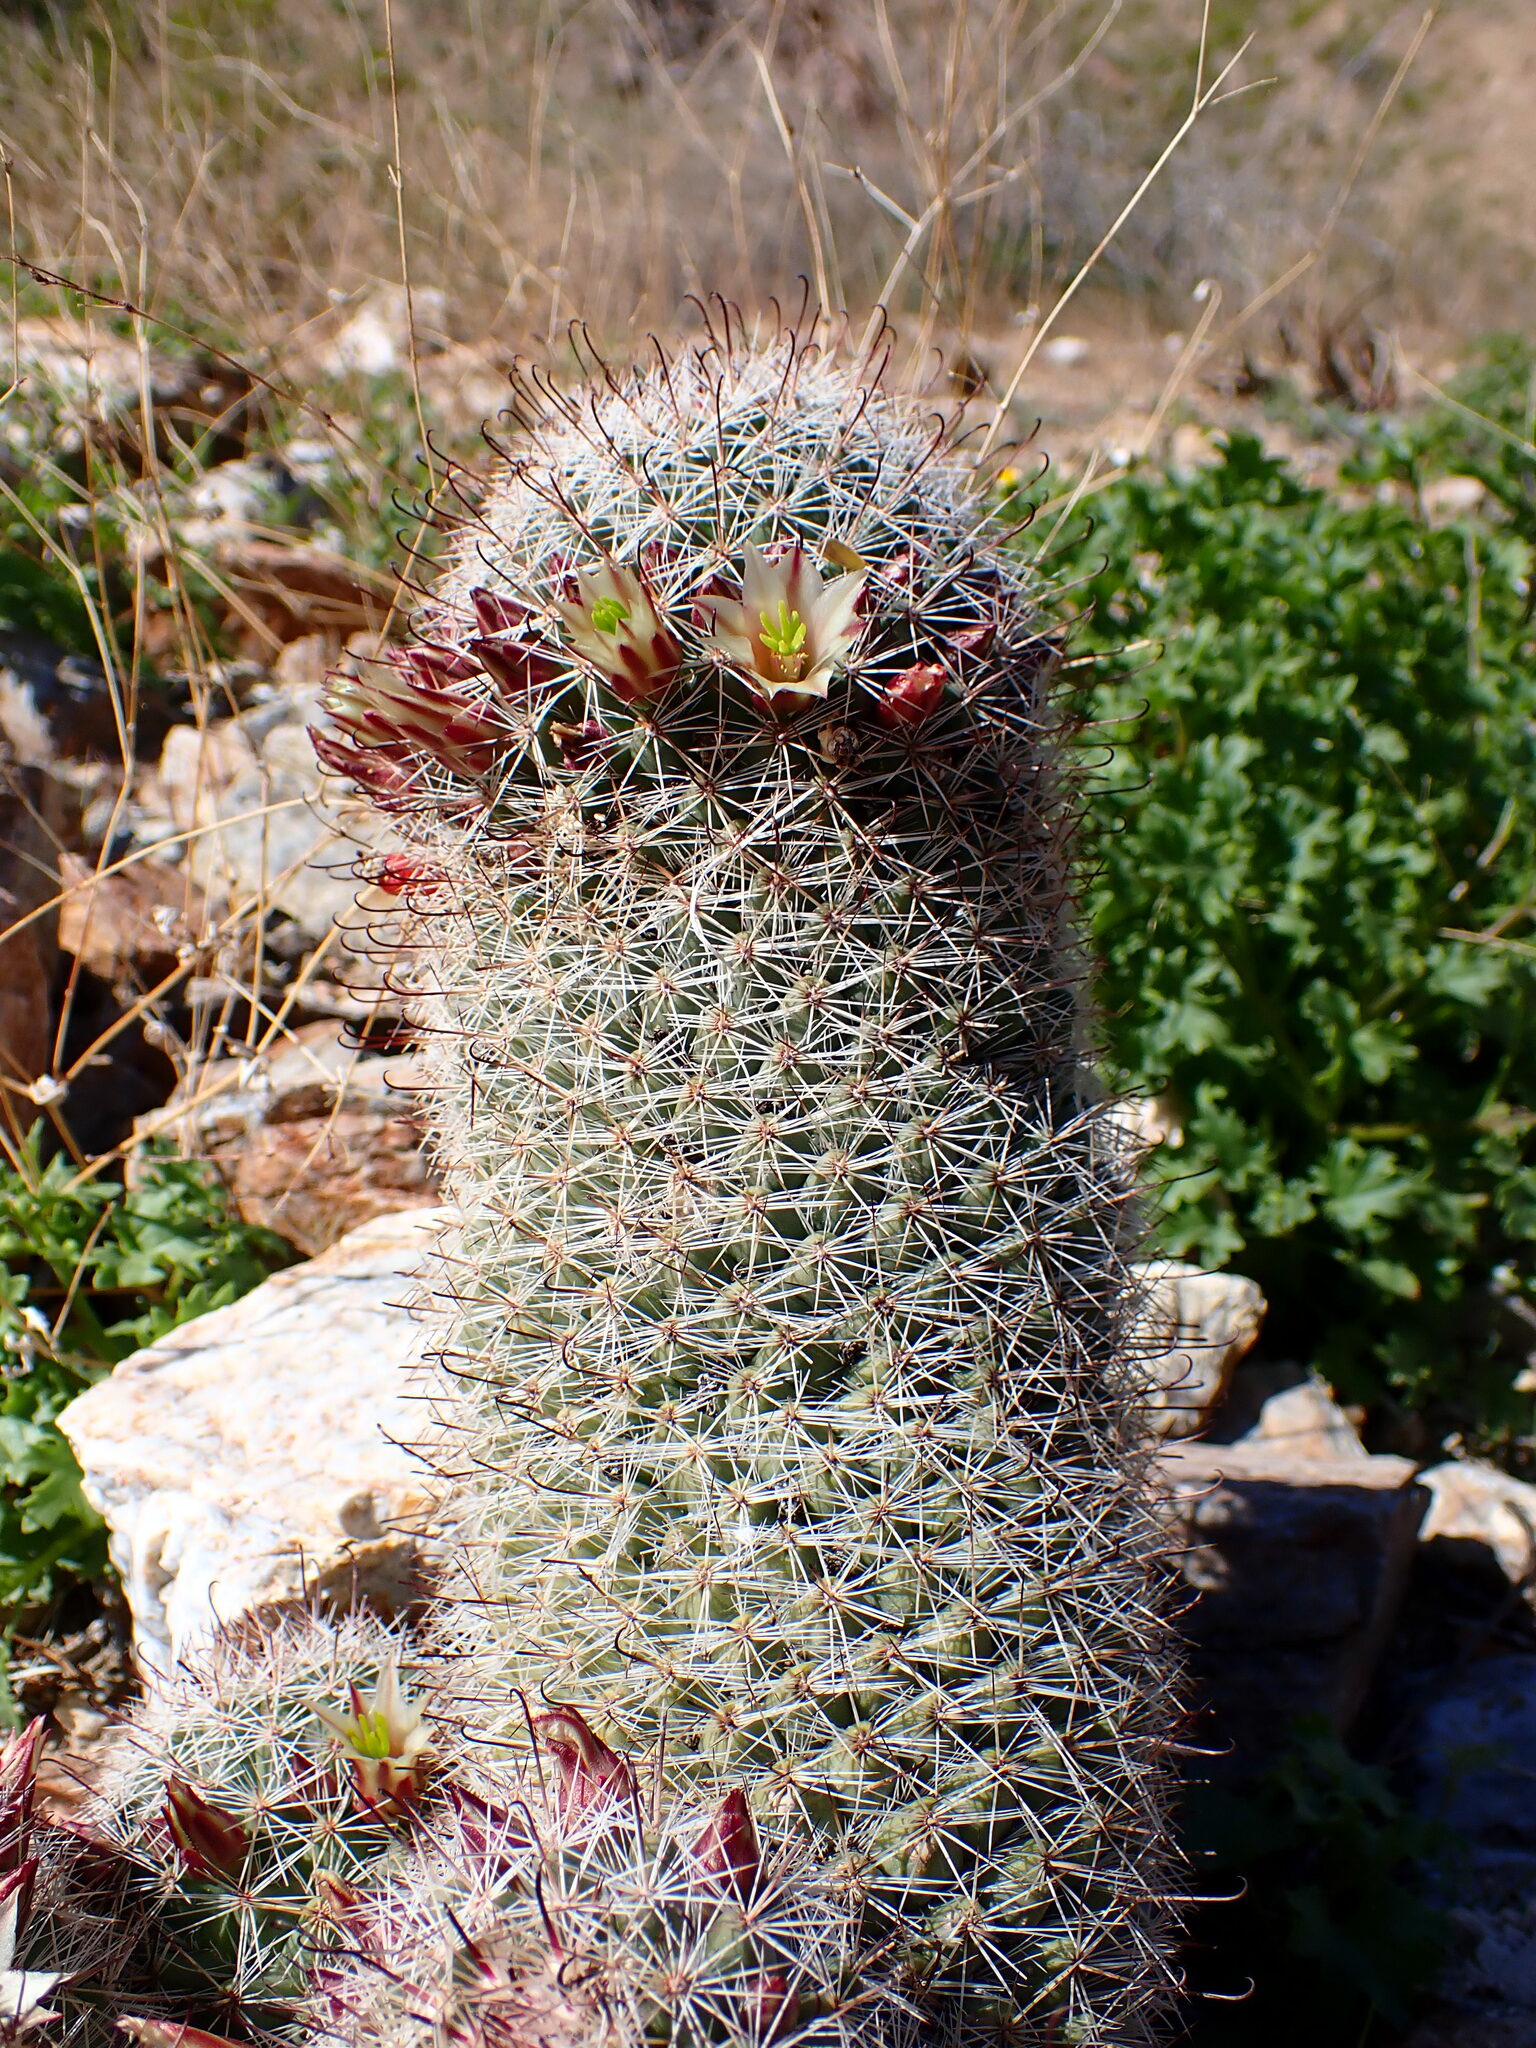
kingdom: Plantae
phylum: Tracheophyta
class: Magnoliopsida
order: Caryophyllales
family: Cactaceae
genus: Cochemiea
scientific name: Cochemiea dioica
